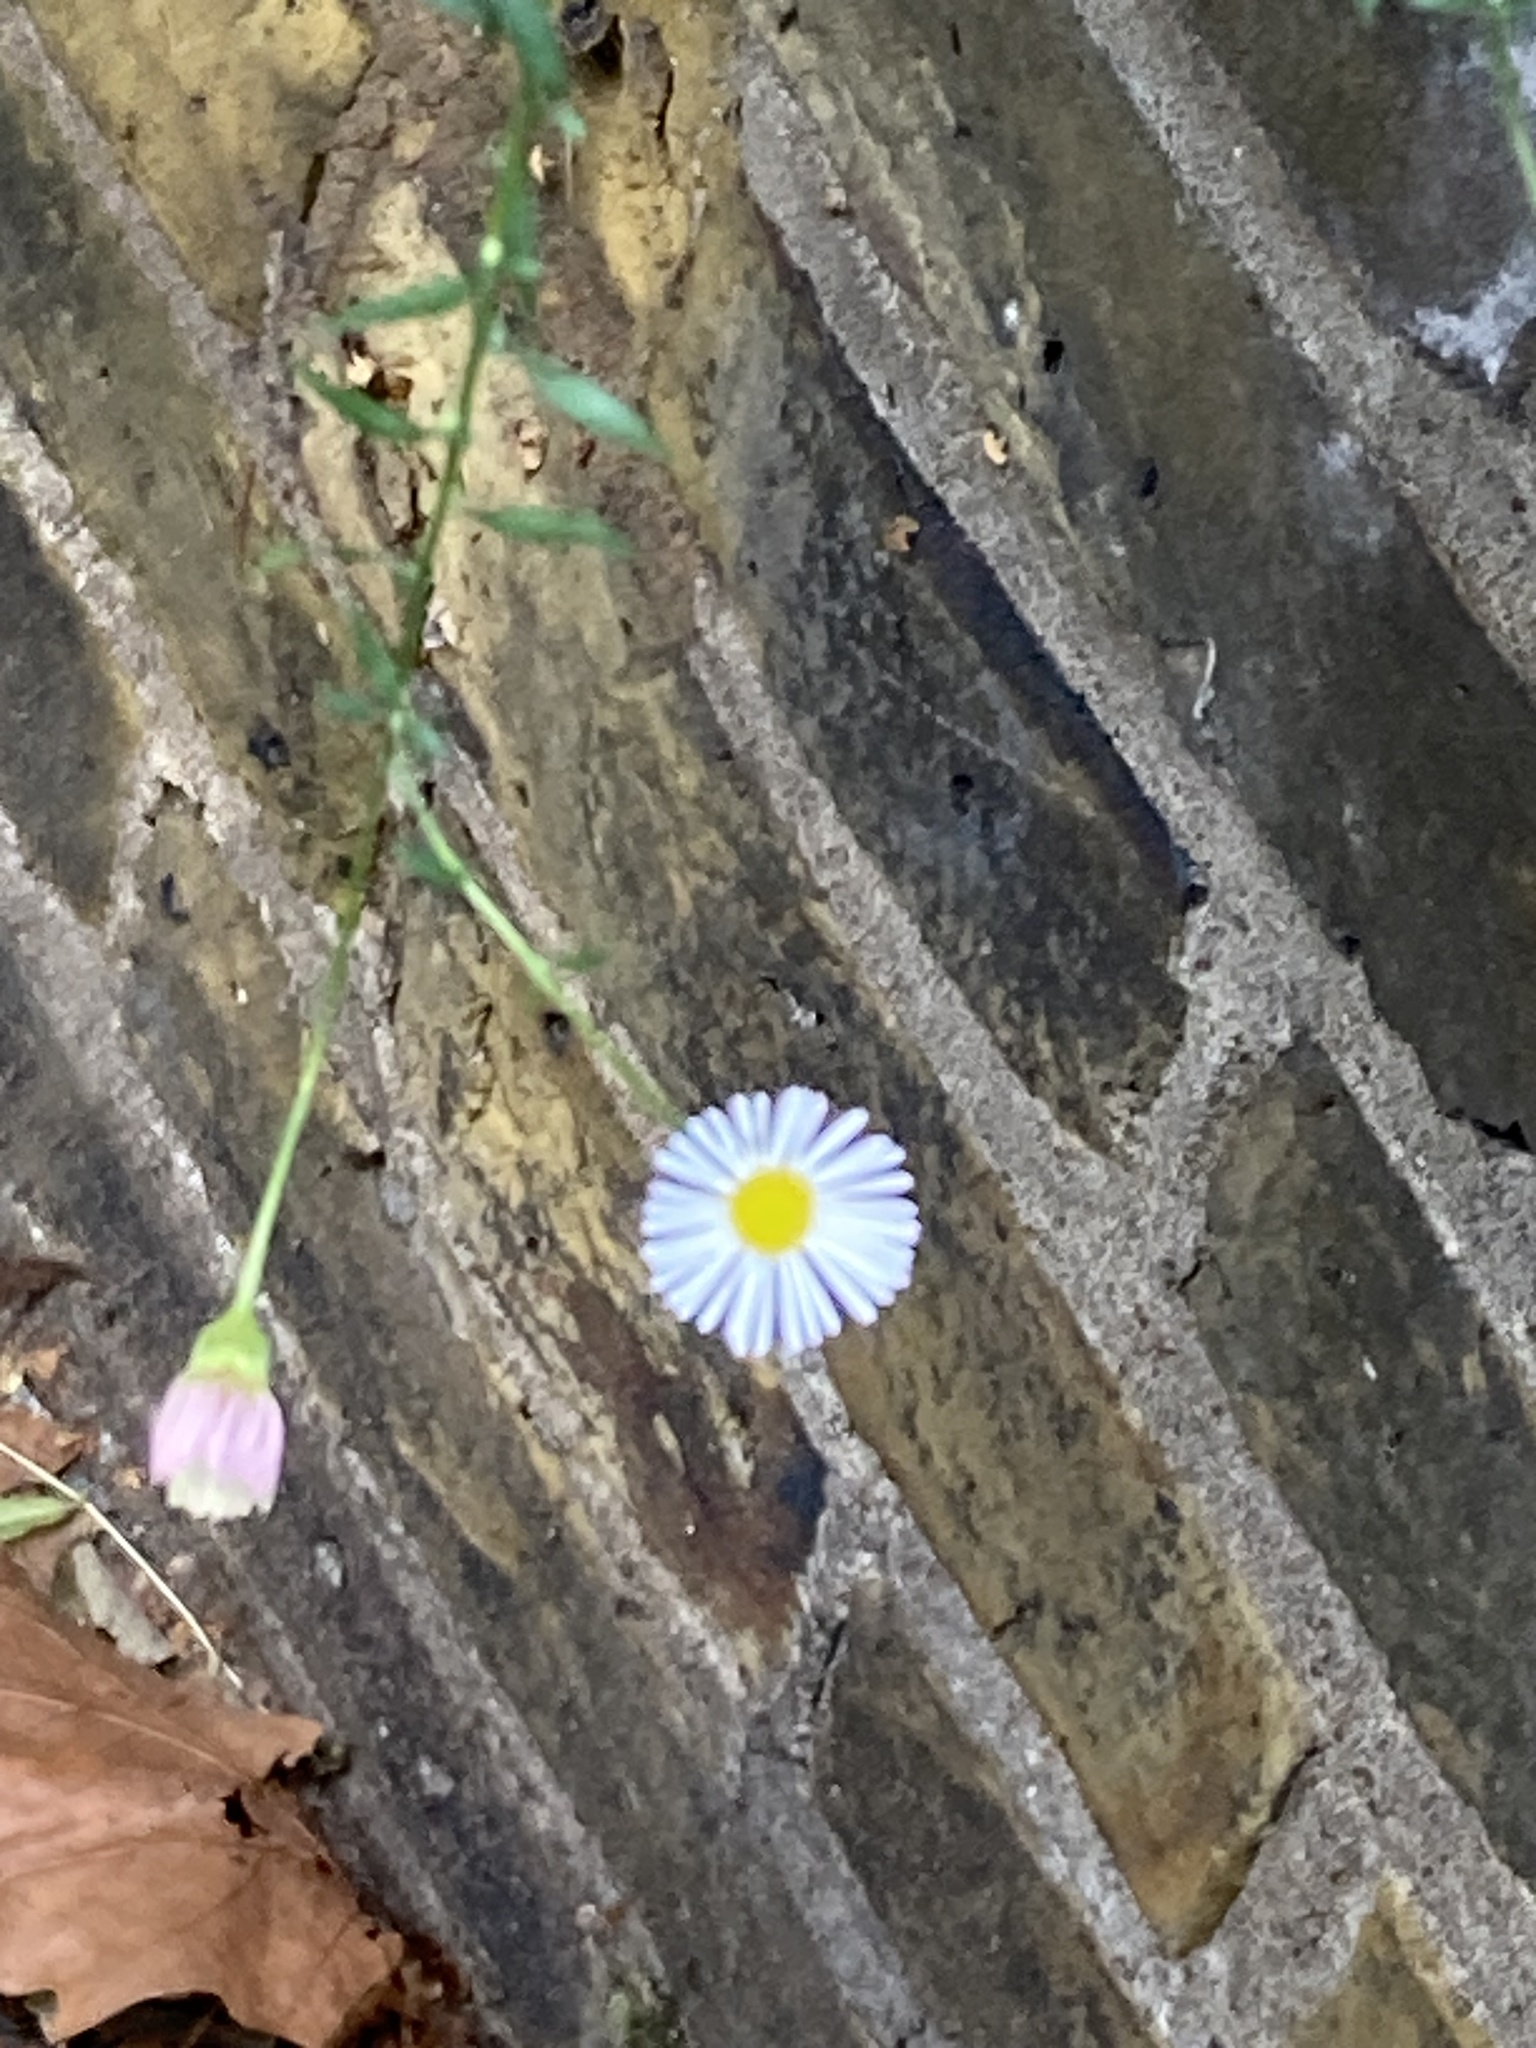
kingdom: Plantae
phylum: Tracheophyta
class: Magnoliopsida
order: Asterales
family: Asteraceae
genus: Erigeron
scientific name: Erigeron karvinskianus
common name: Mexican fleabane
